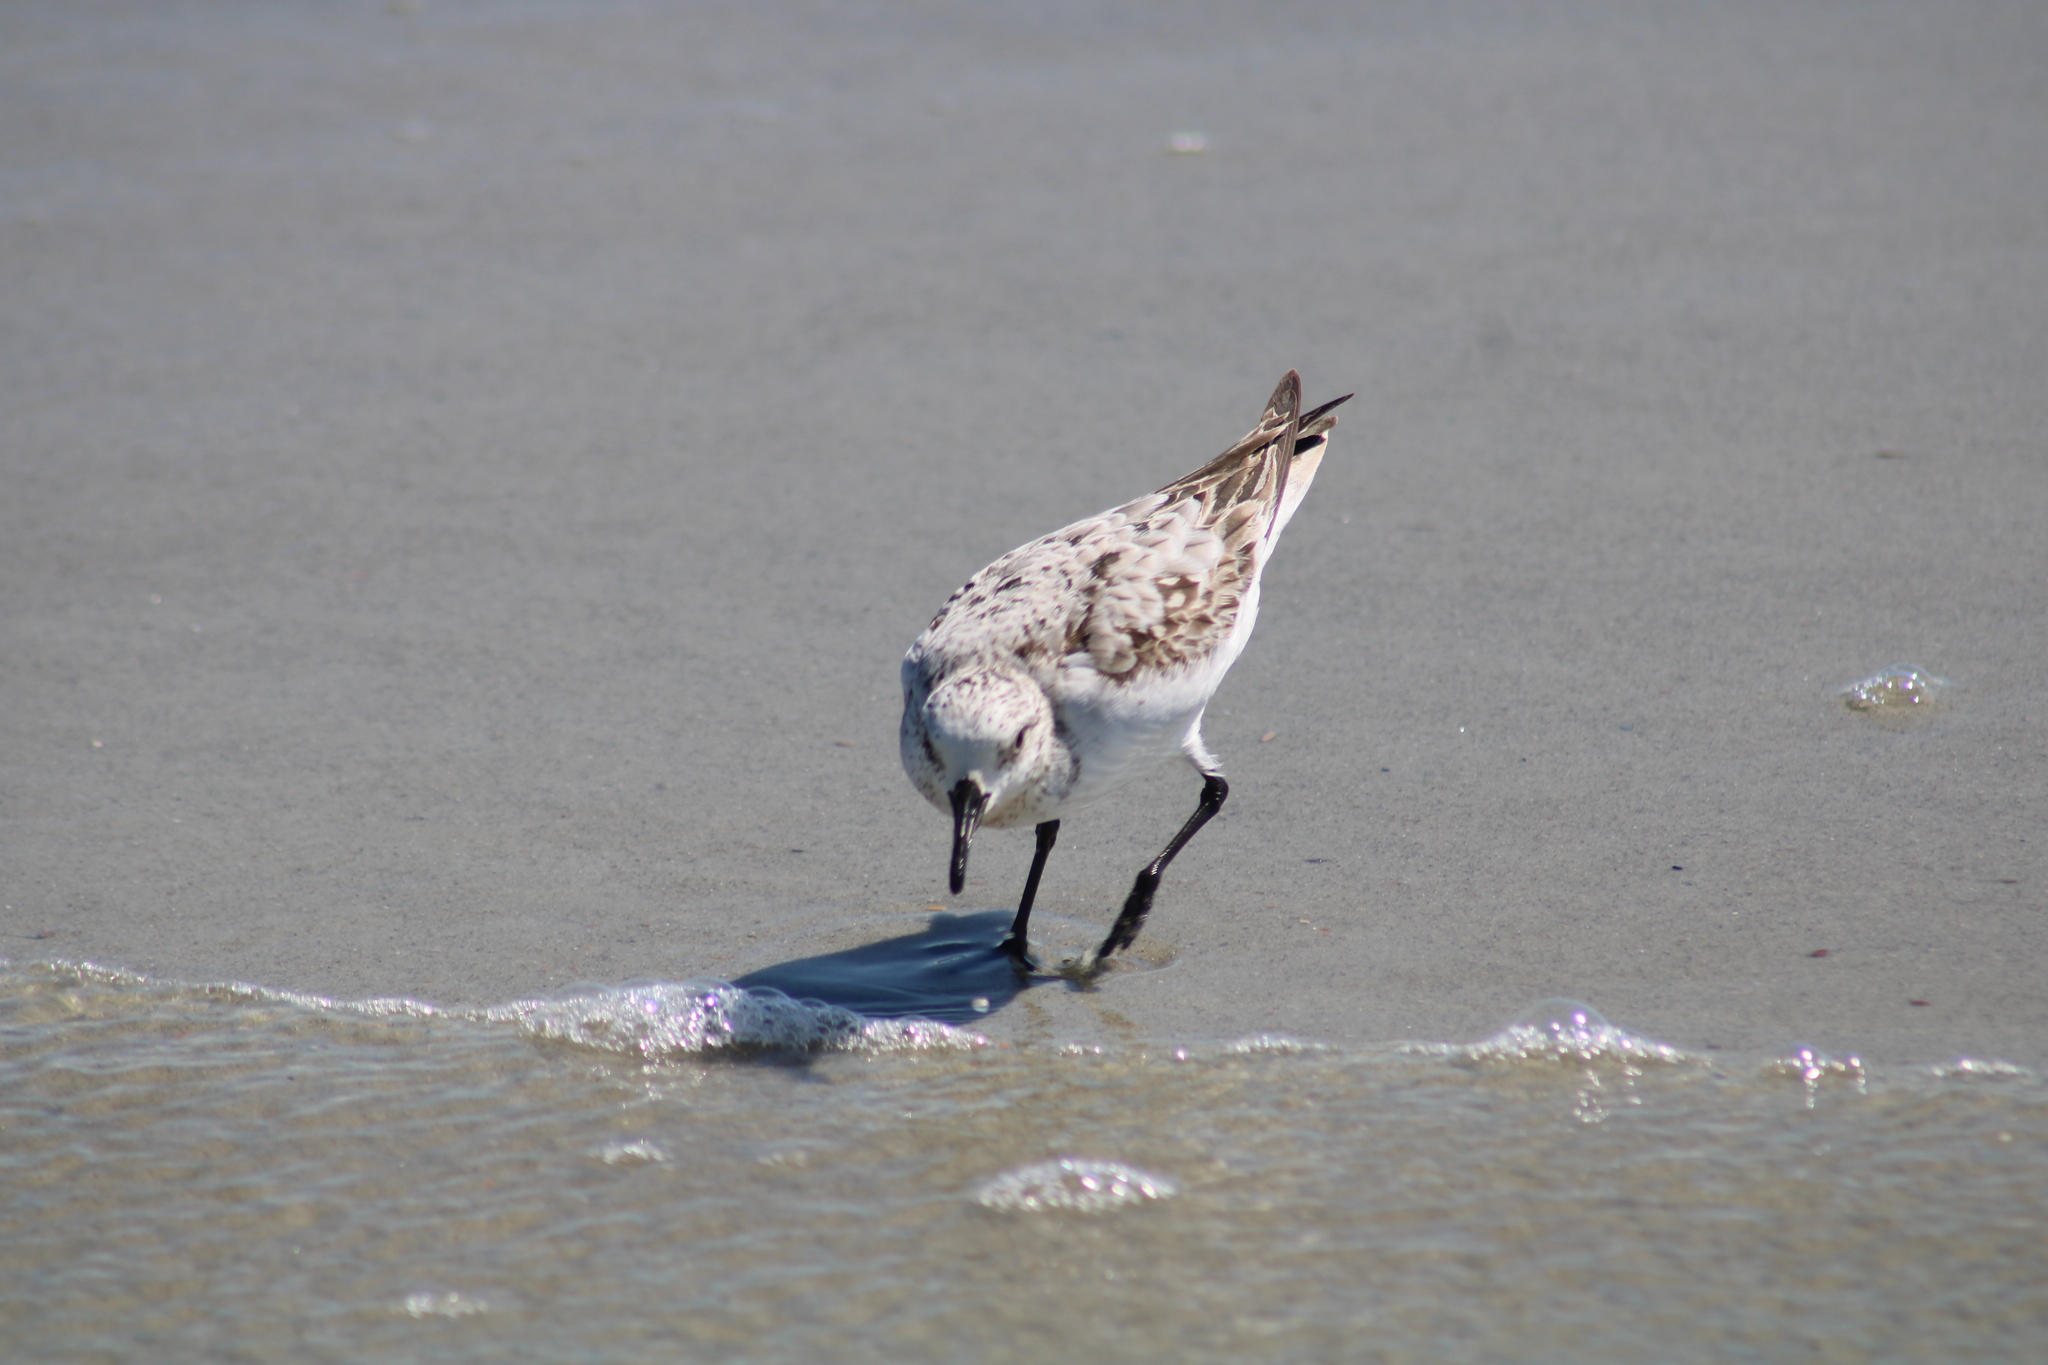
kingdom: Animalia
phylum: Chordata
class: Aves
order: Charadriiformes
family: Scolopacidae
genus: Calidris
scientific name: Calidris alba
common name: Sanderling
